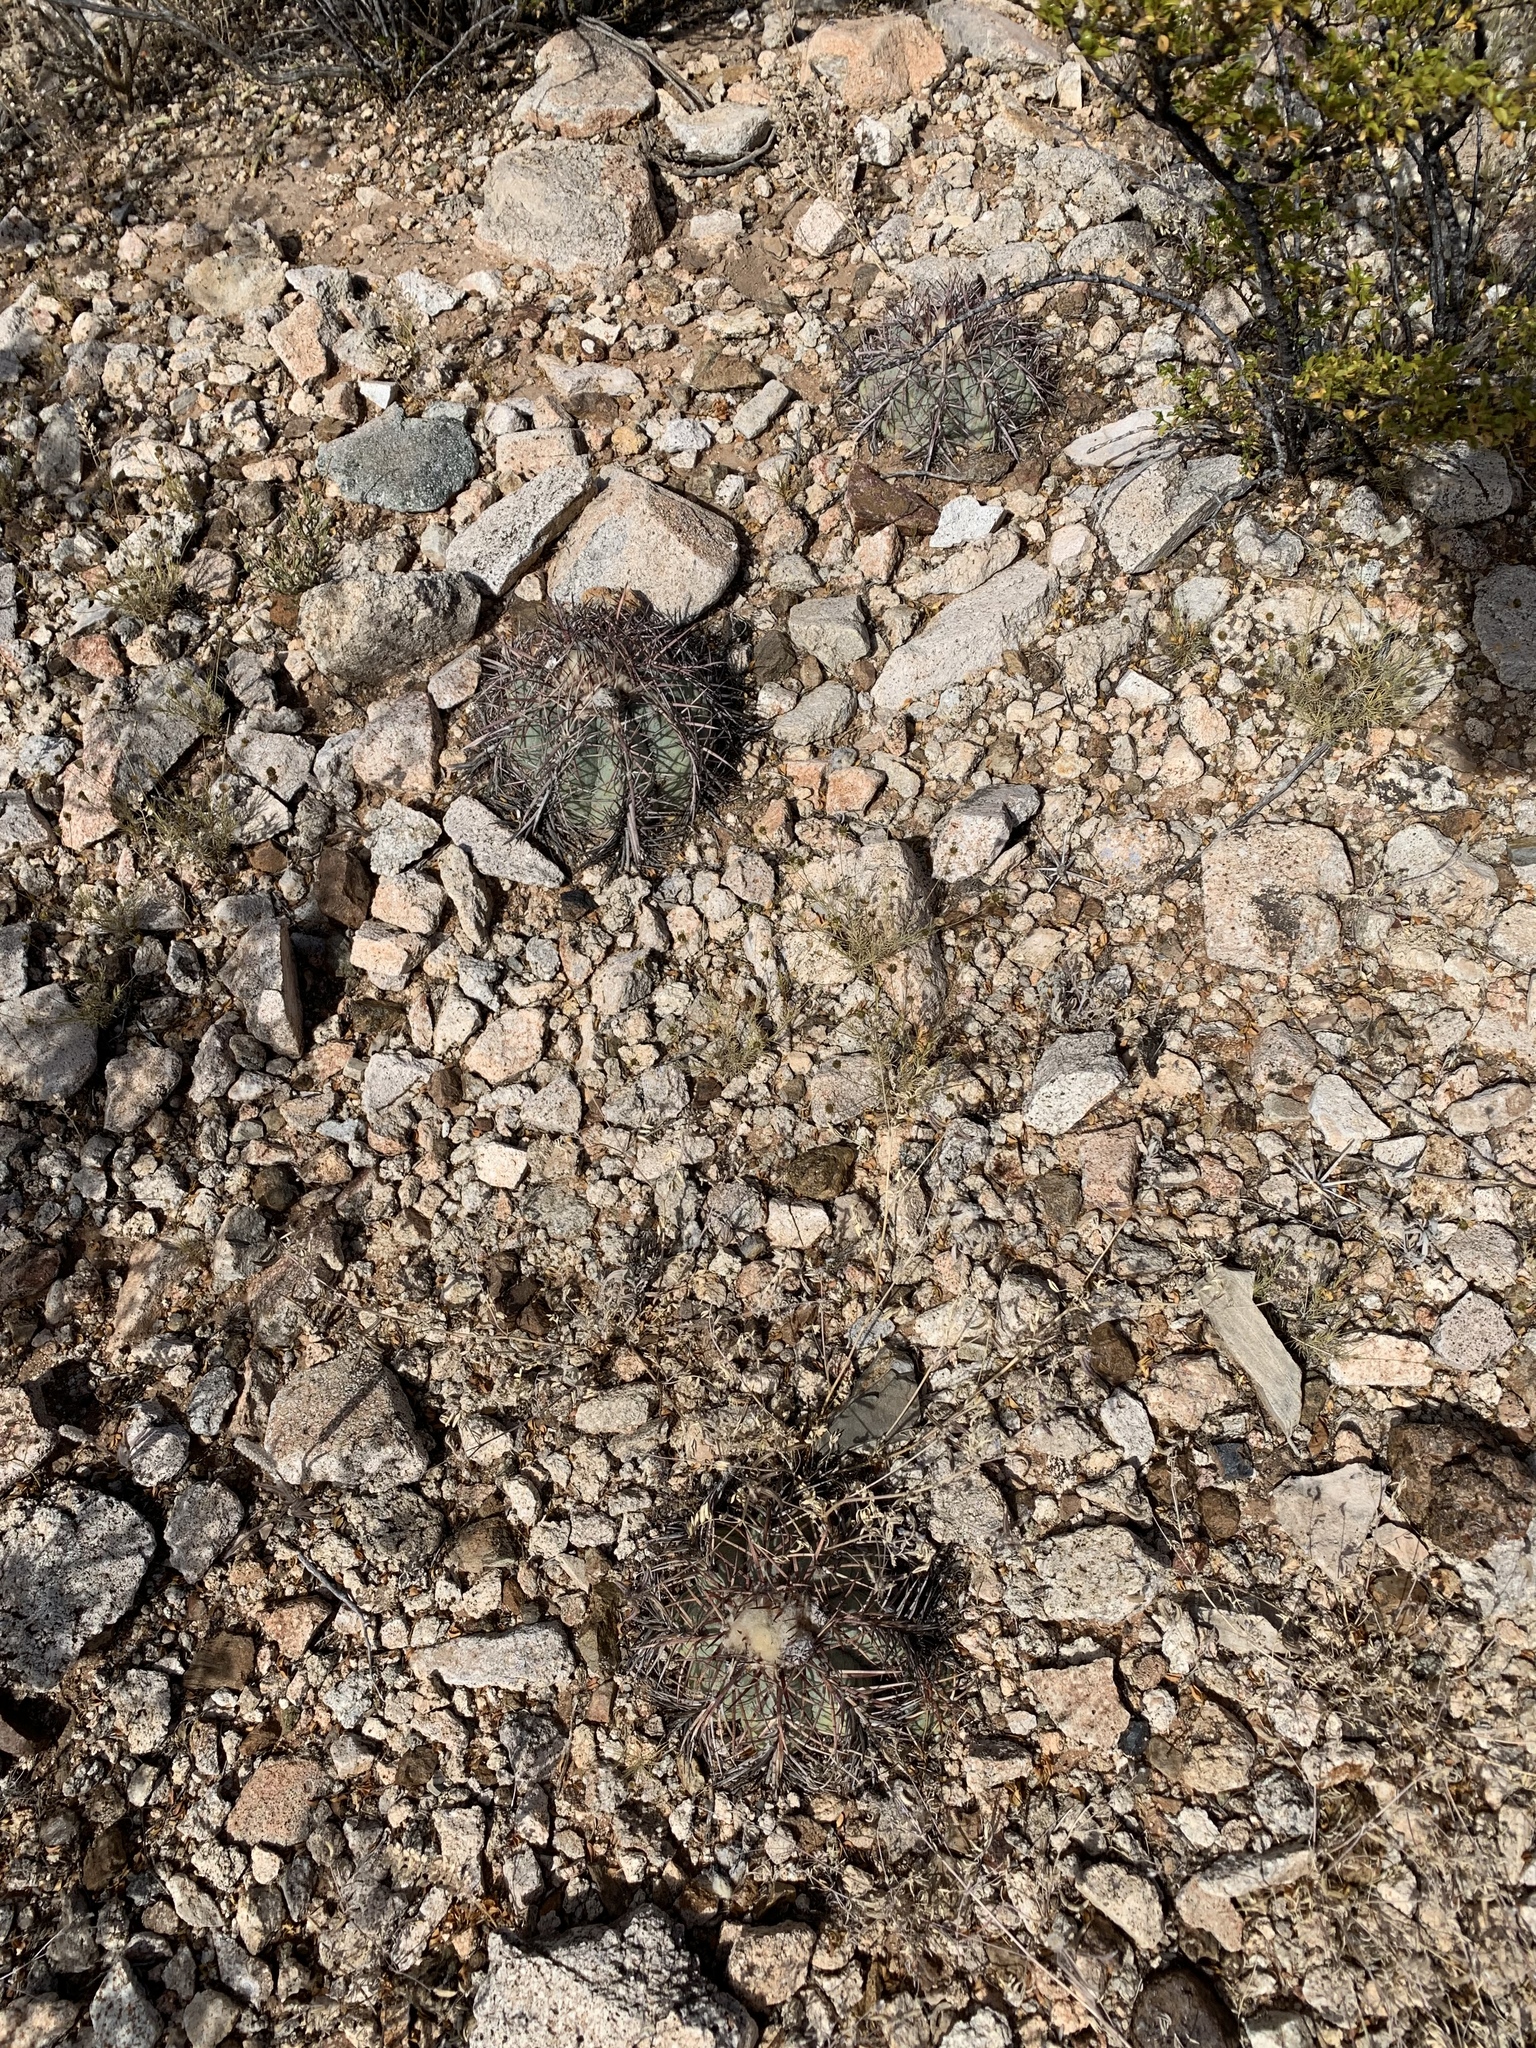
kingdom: Plantae
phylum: Tracheophyta
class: Magnoliopsida
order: Caryophyllales
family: Cactaceae
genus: Echinocactus
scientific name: Echinocactus horizonthalonius
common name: Devilshead
